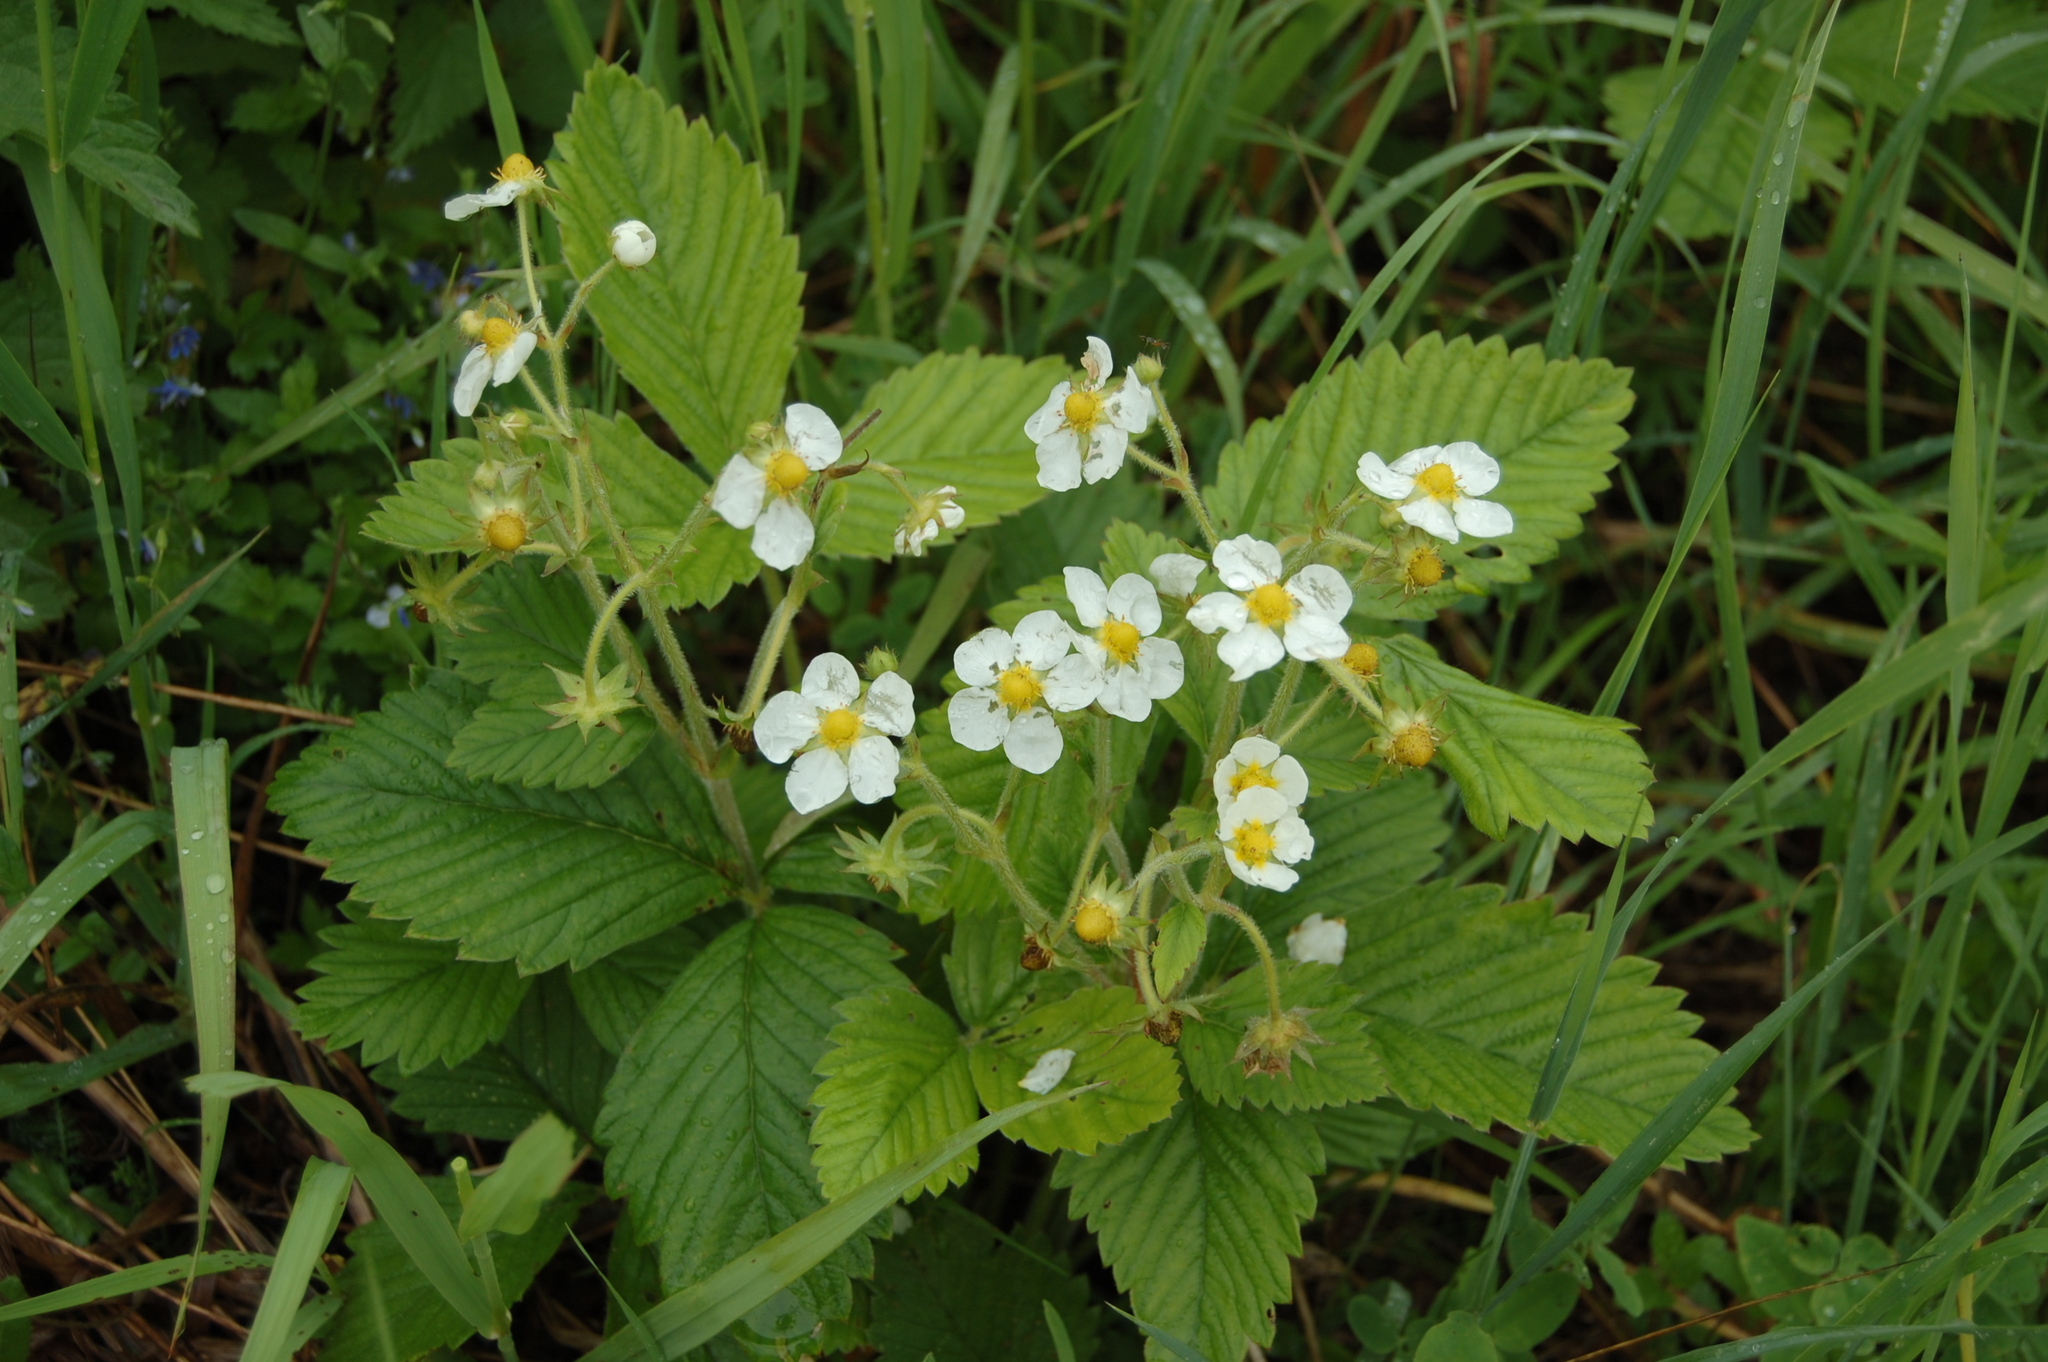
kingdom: Plantae
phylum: Tracheophyta
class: Magnoliopsida
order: Rosales
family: Rosaceae
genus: Fragaria
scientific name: Fragaria moschata
